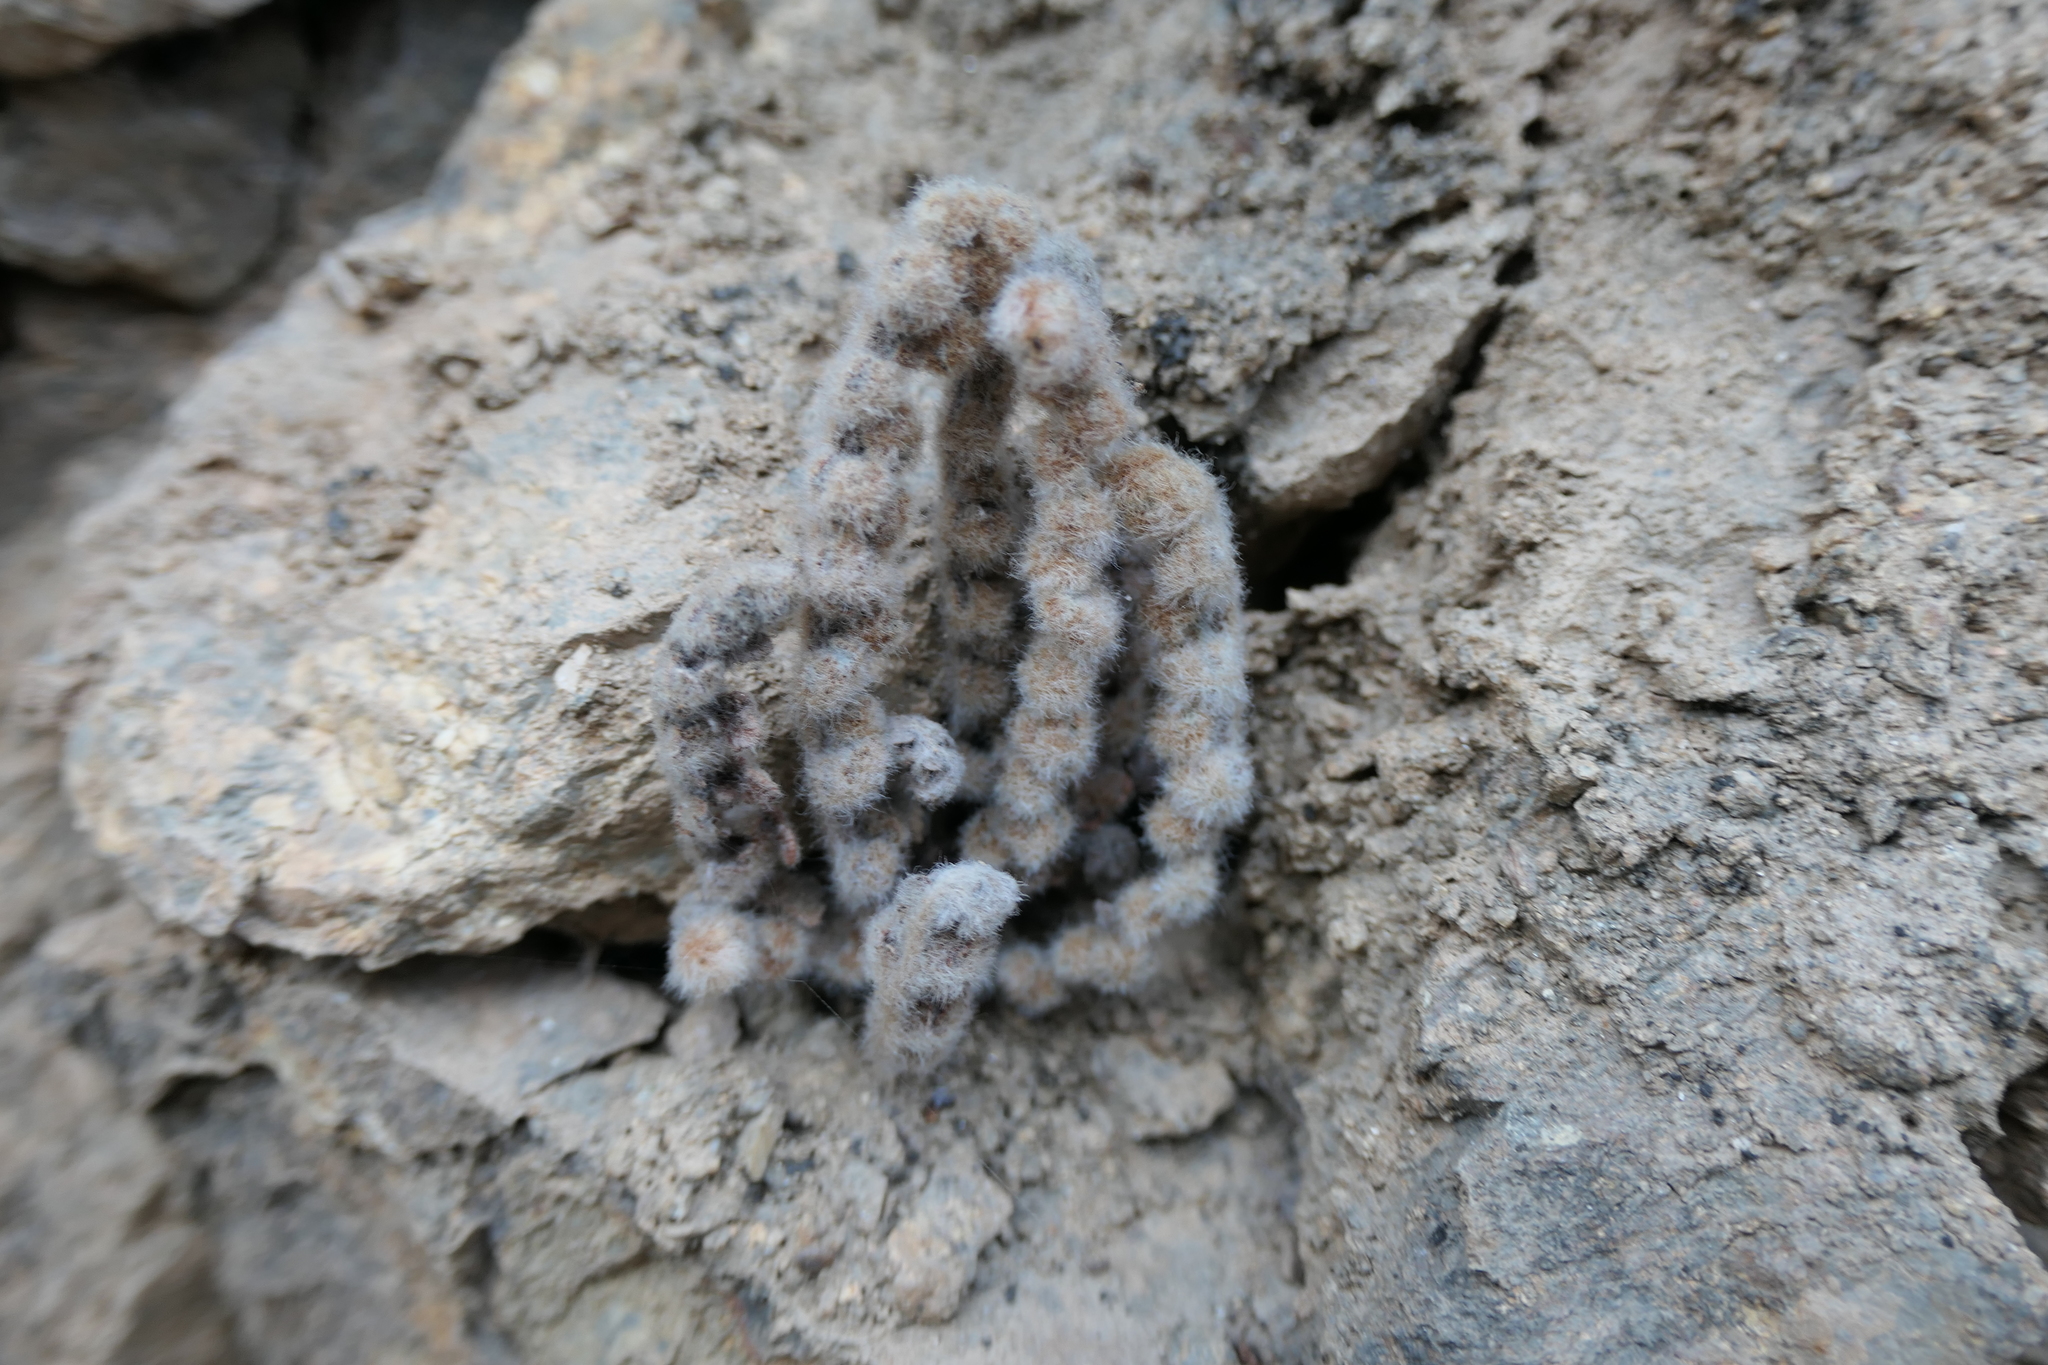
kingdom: Plantae
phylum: Tracheophyta
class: Polypodiopsida
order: Polypodiales
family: Pteridaceae
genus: Cosentinia
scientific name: Cosentinia vellea
